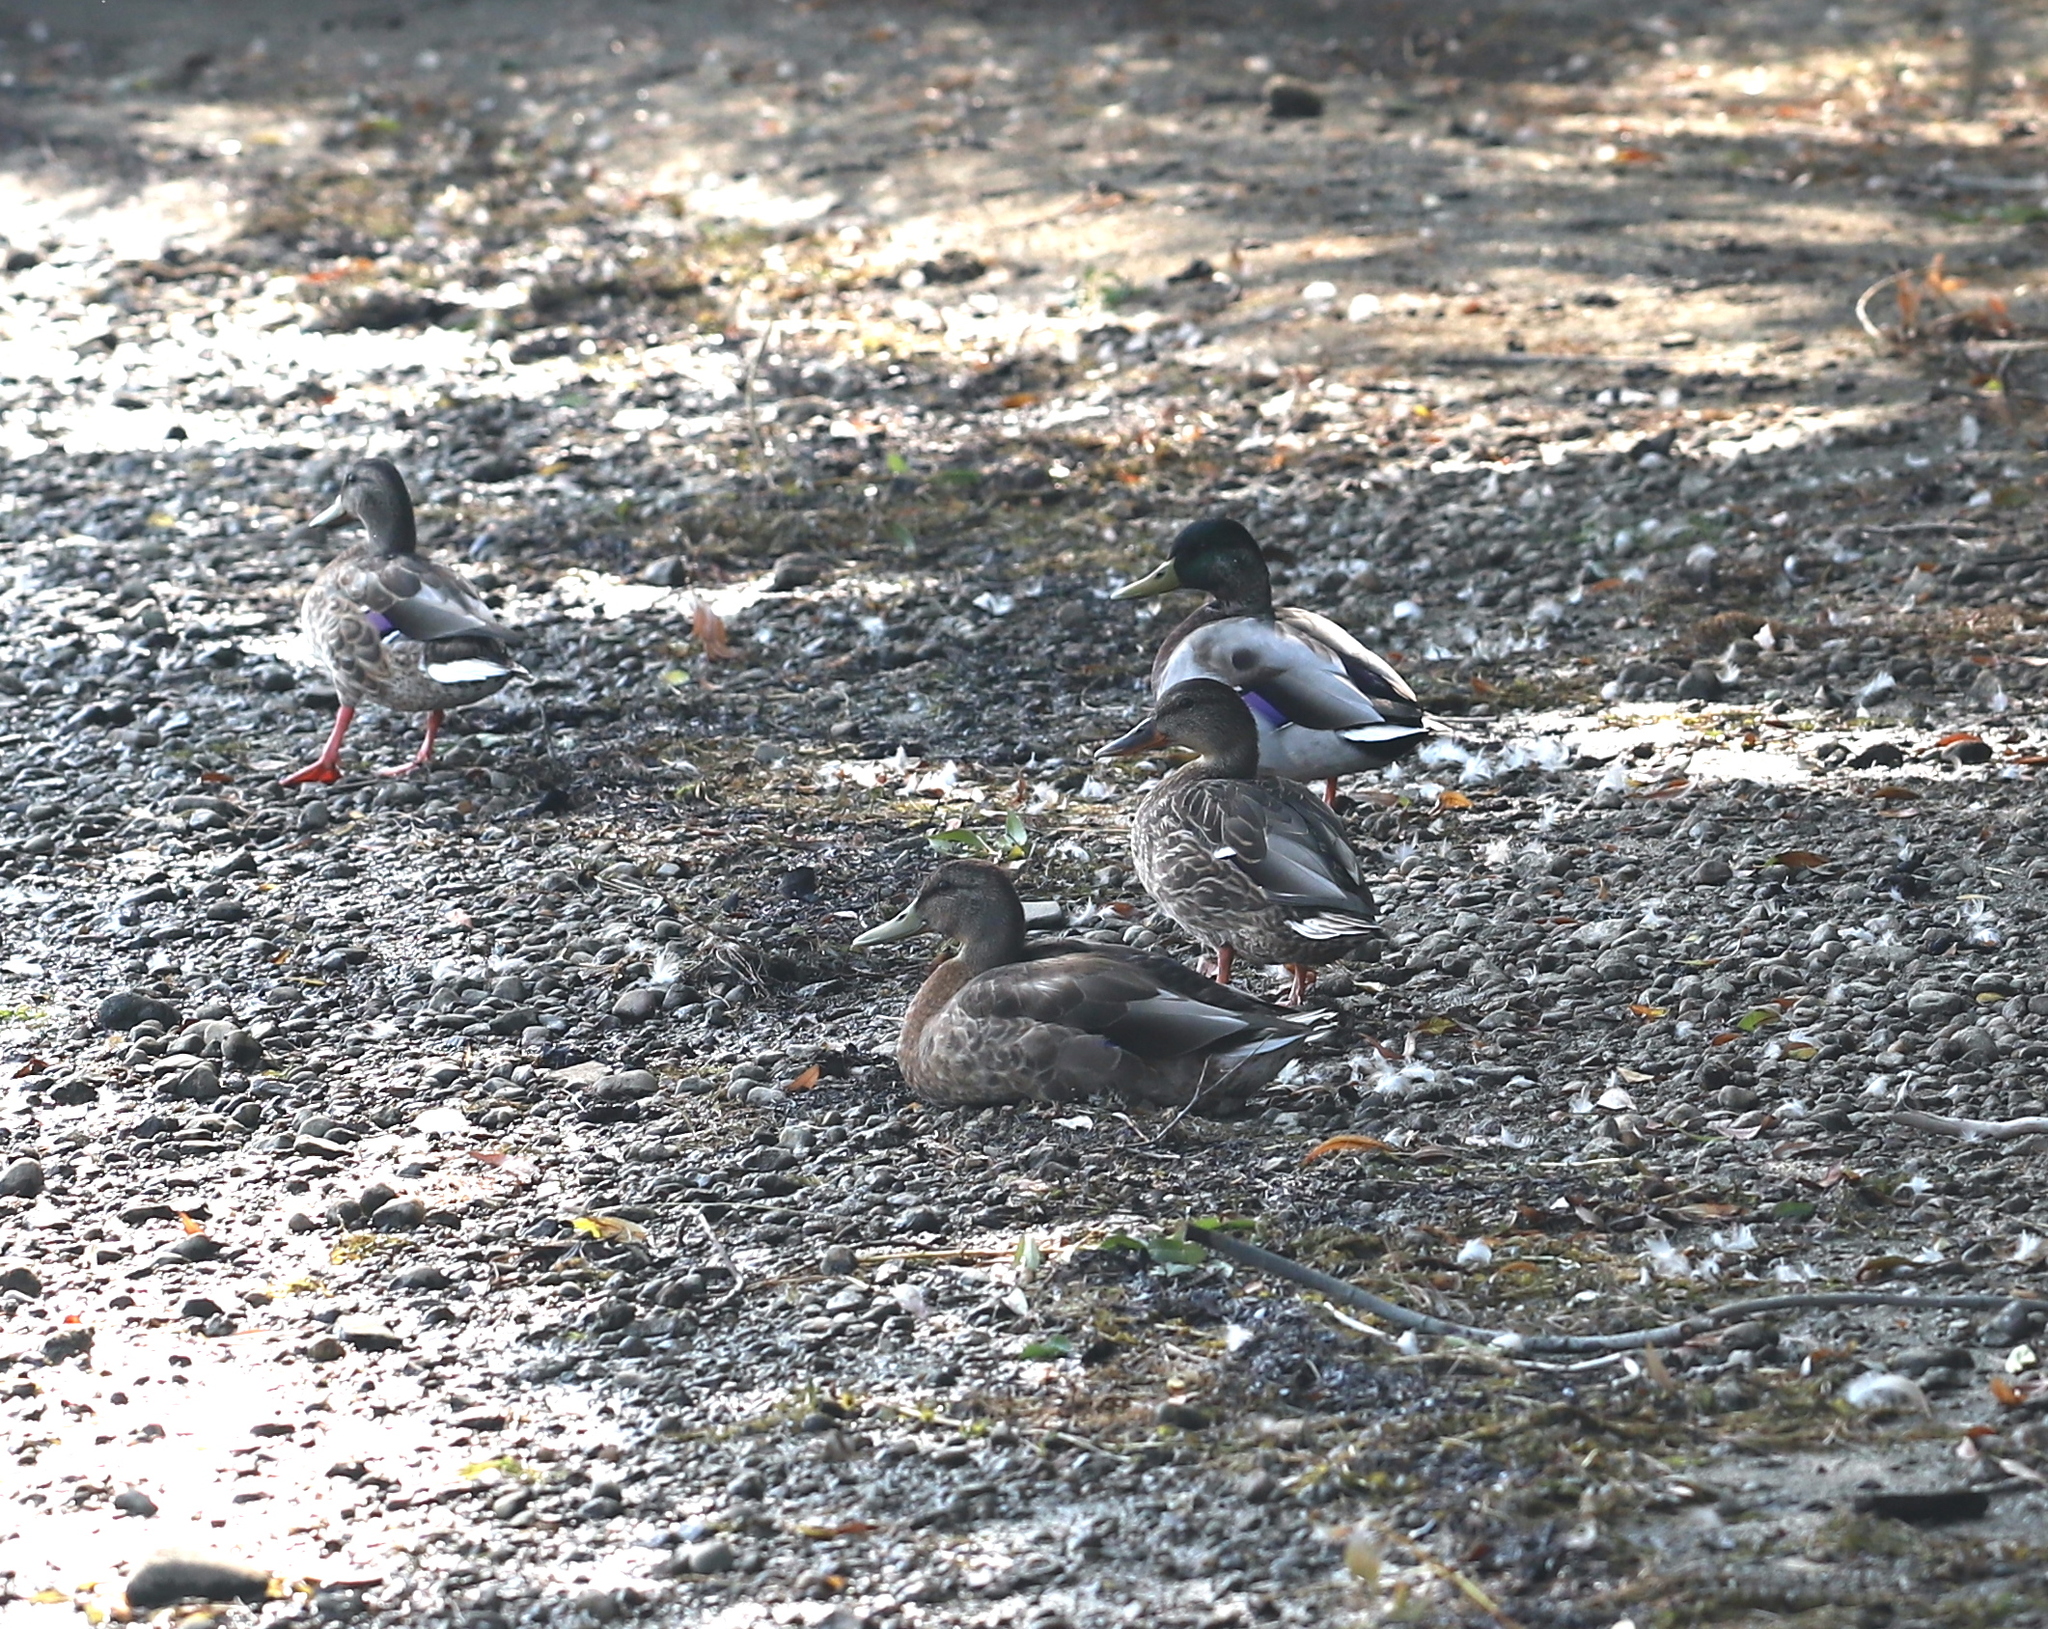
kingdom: Animalia
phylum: Chordata
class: Aves
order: Anseriformes
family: Anatidae
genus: Anas
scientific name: Anas platyrhynchos
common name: Mallard
